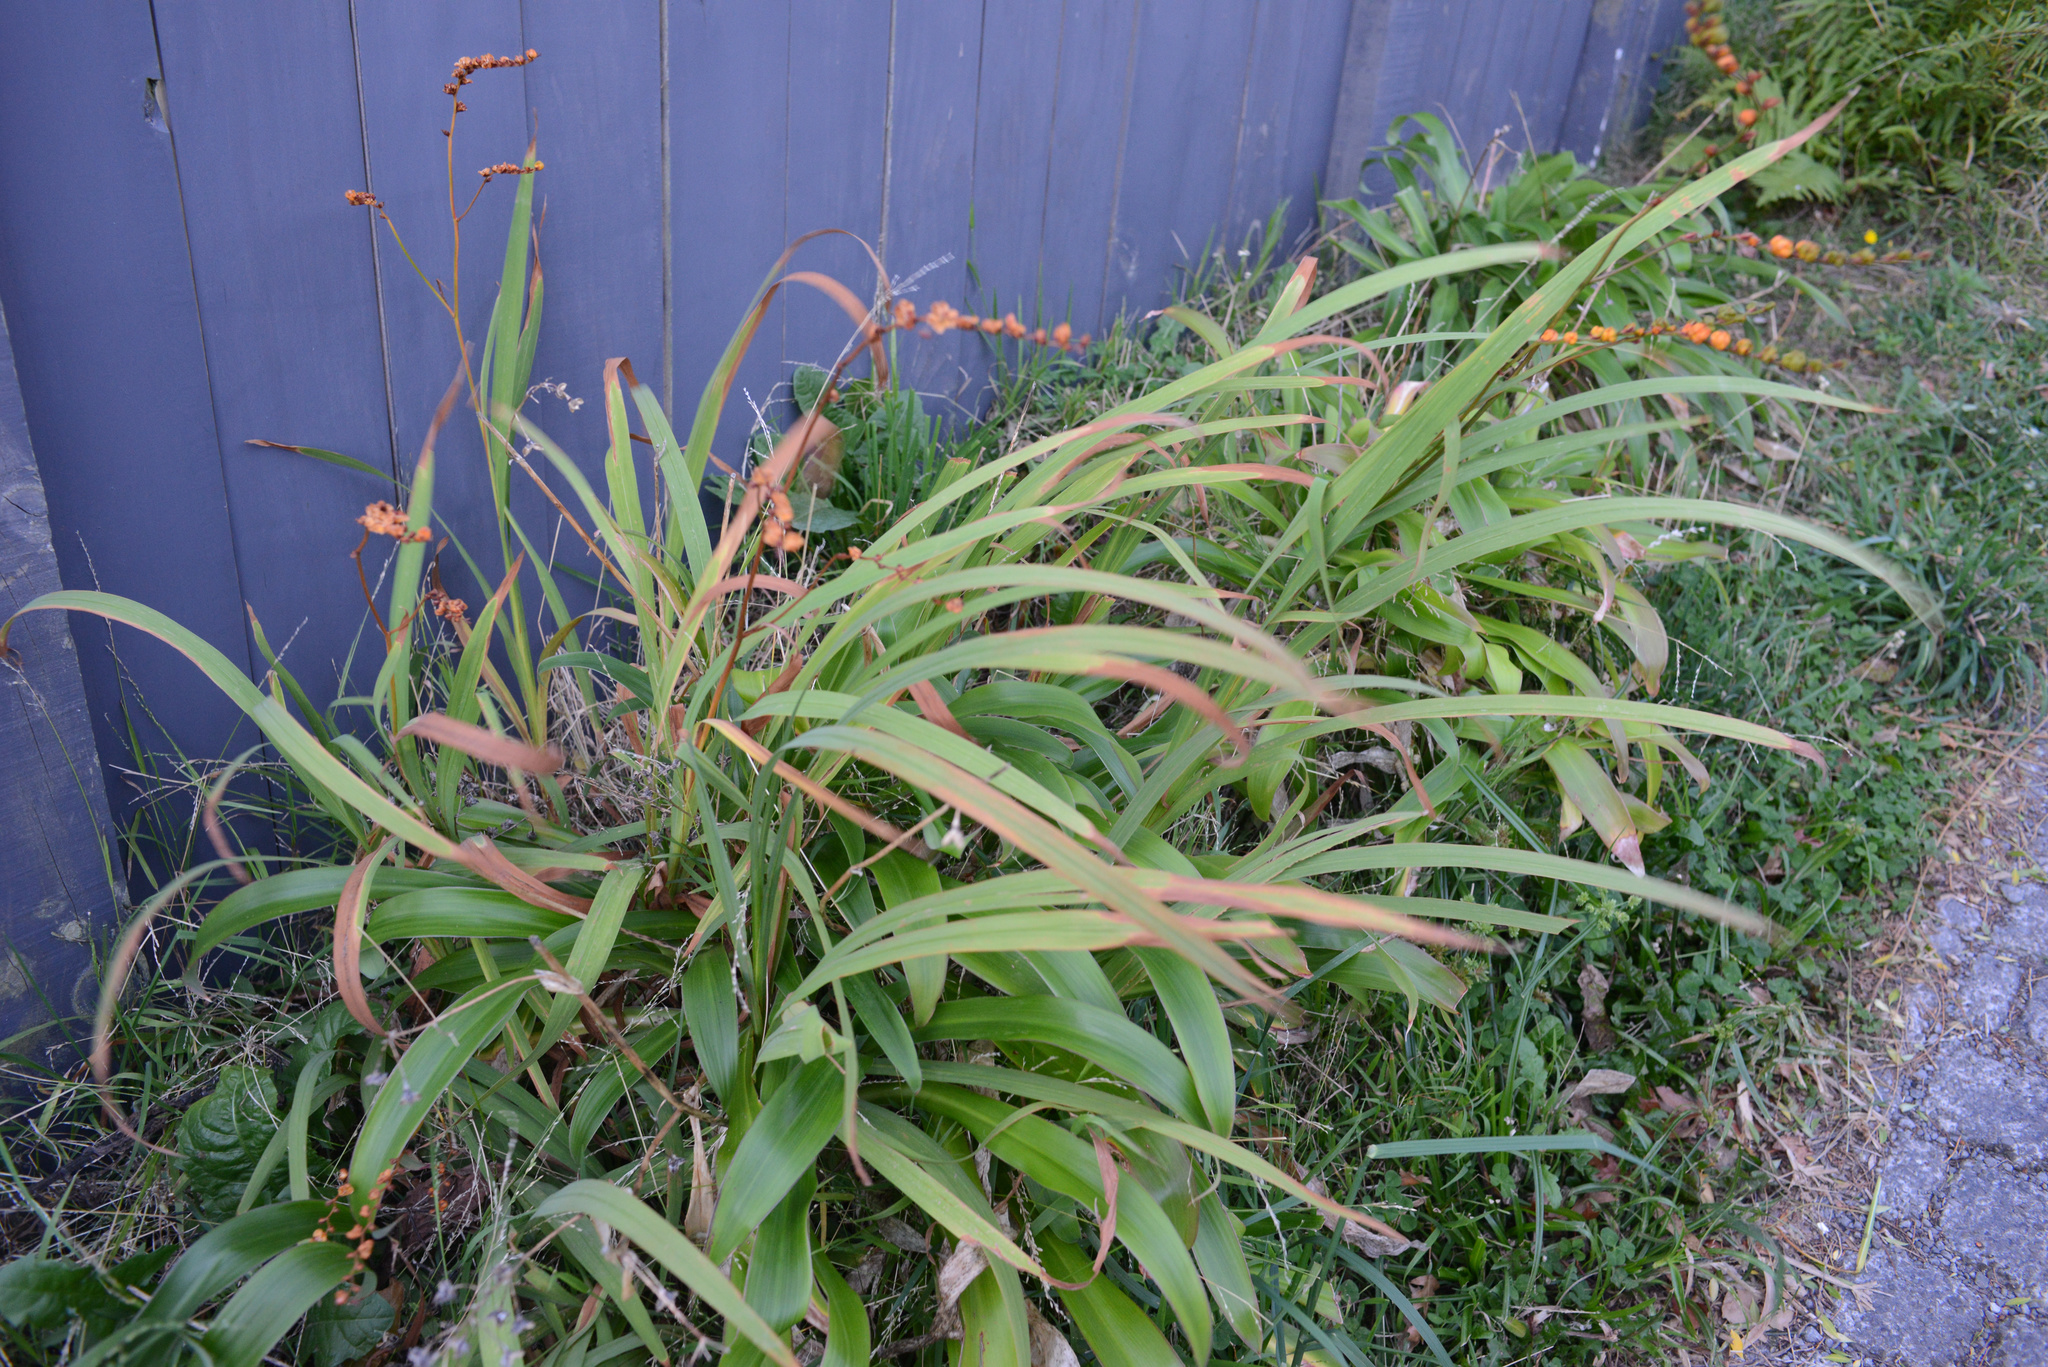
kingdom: Plantae
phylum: Tracheophyta
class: Liliopsida
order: Asparagales
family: Iridaceae
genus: Crocosmia
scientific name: Crocosmia crocosmiiflora
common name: Montbretia
